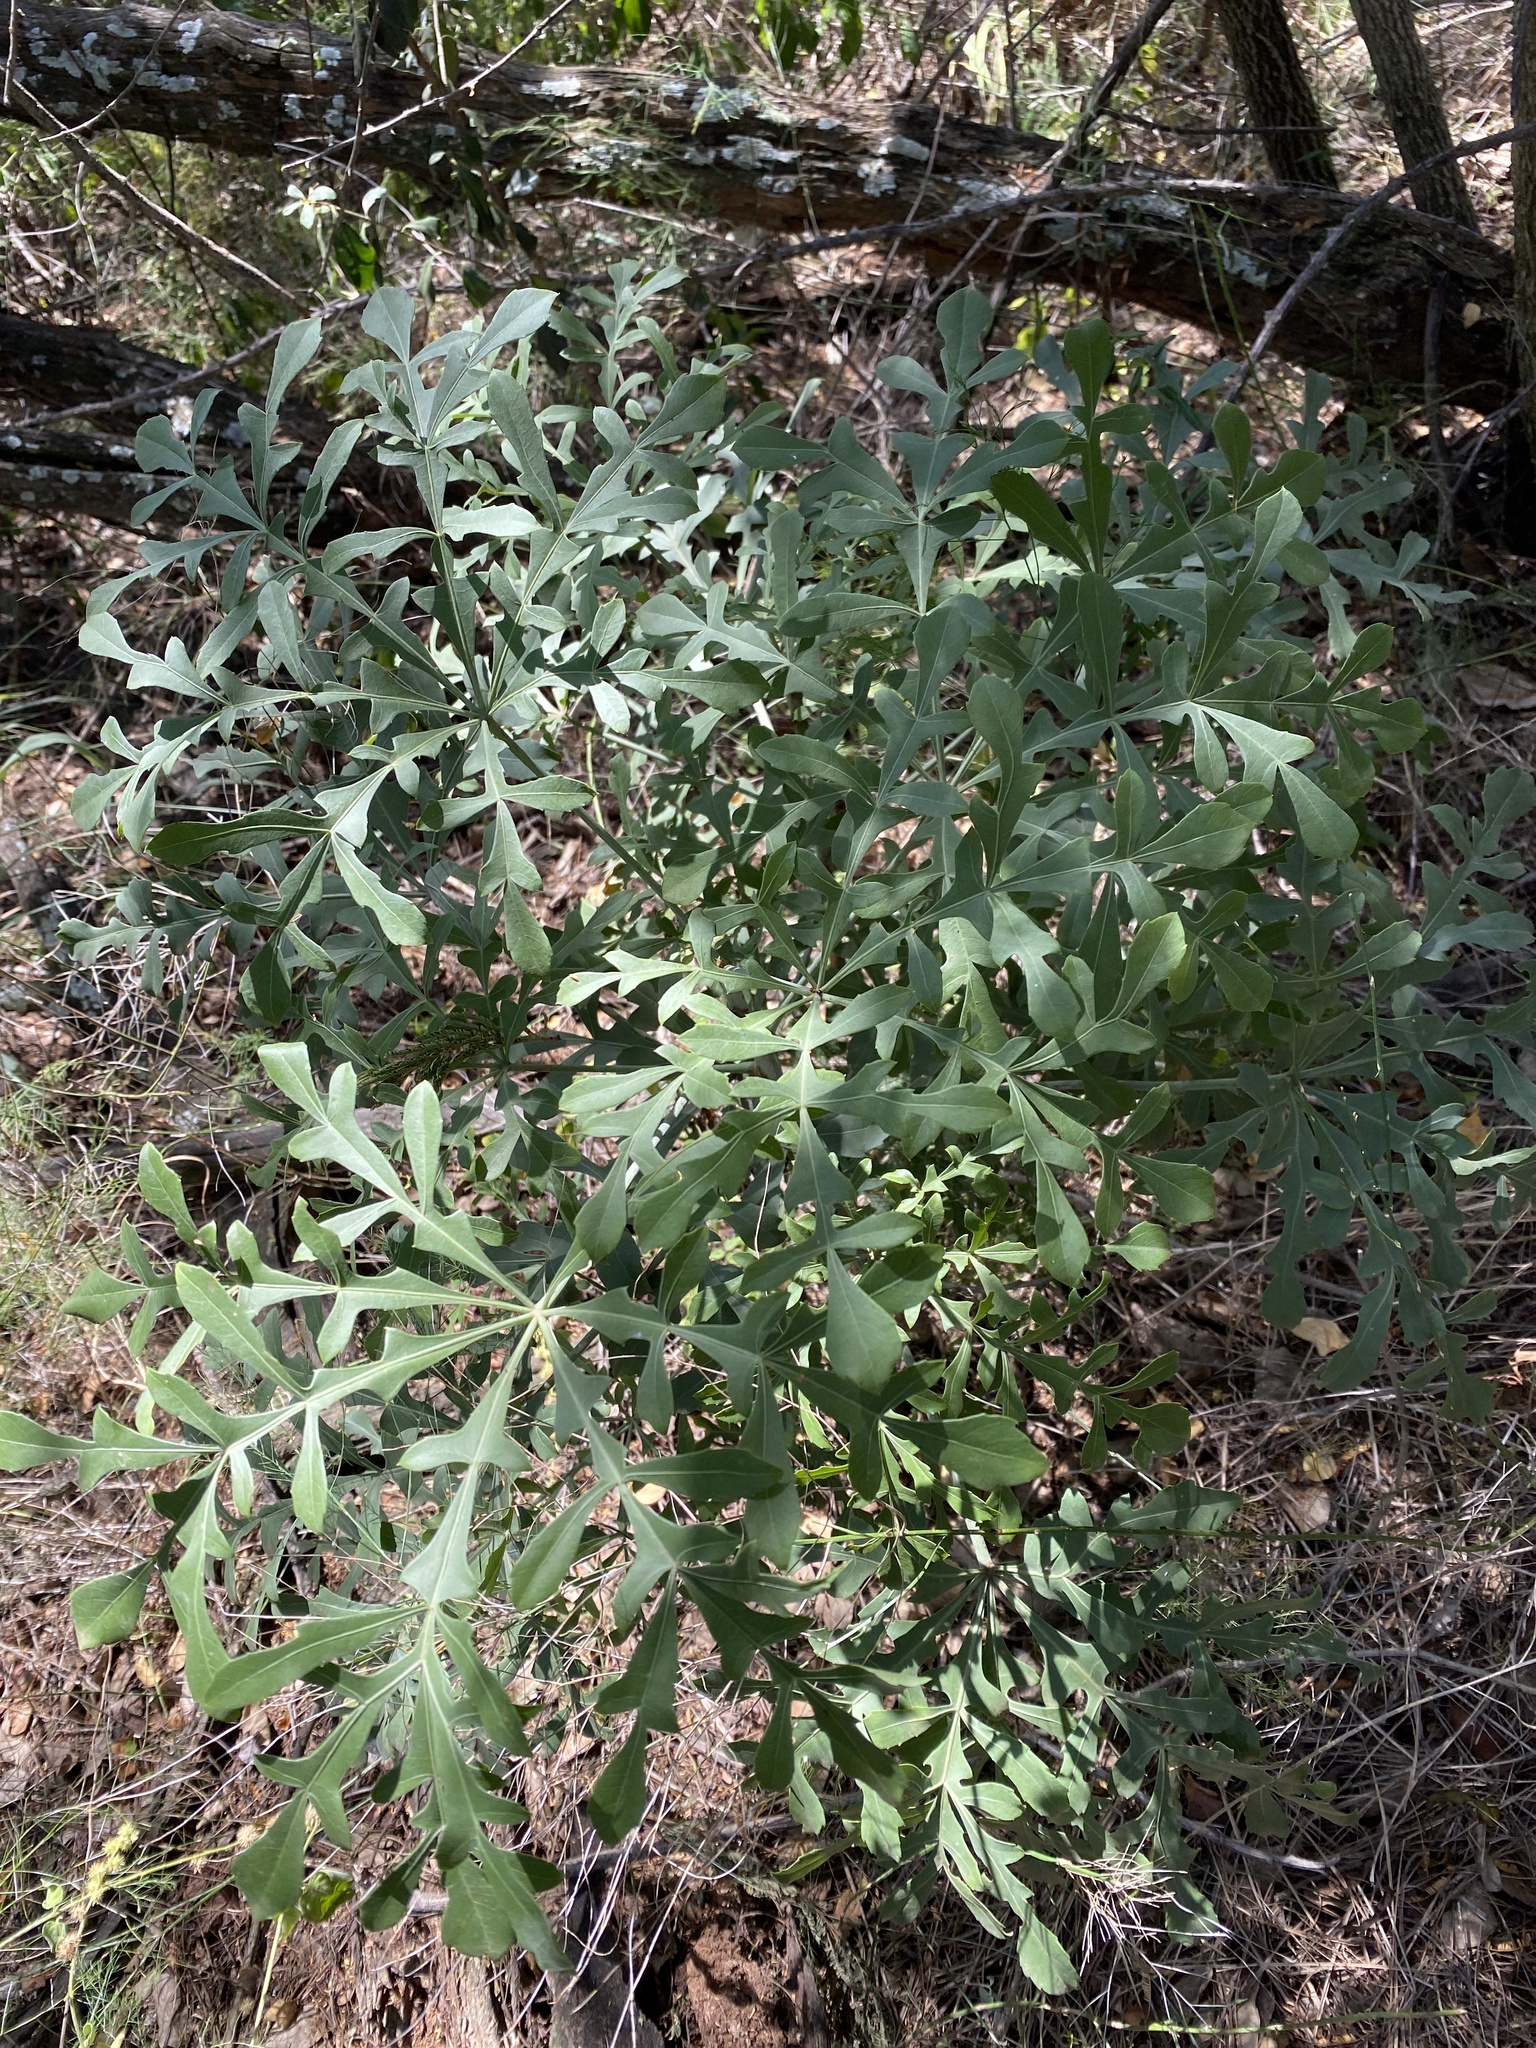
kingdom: Plantae
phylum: Tracheophyta
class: Magnoliopsida
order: Apiales
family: Araliaceae
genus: Cussonia
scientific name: Cussonia paniculata
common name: Cabbagetree
